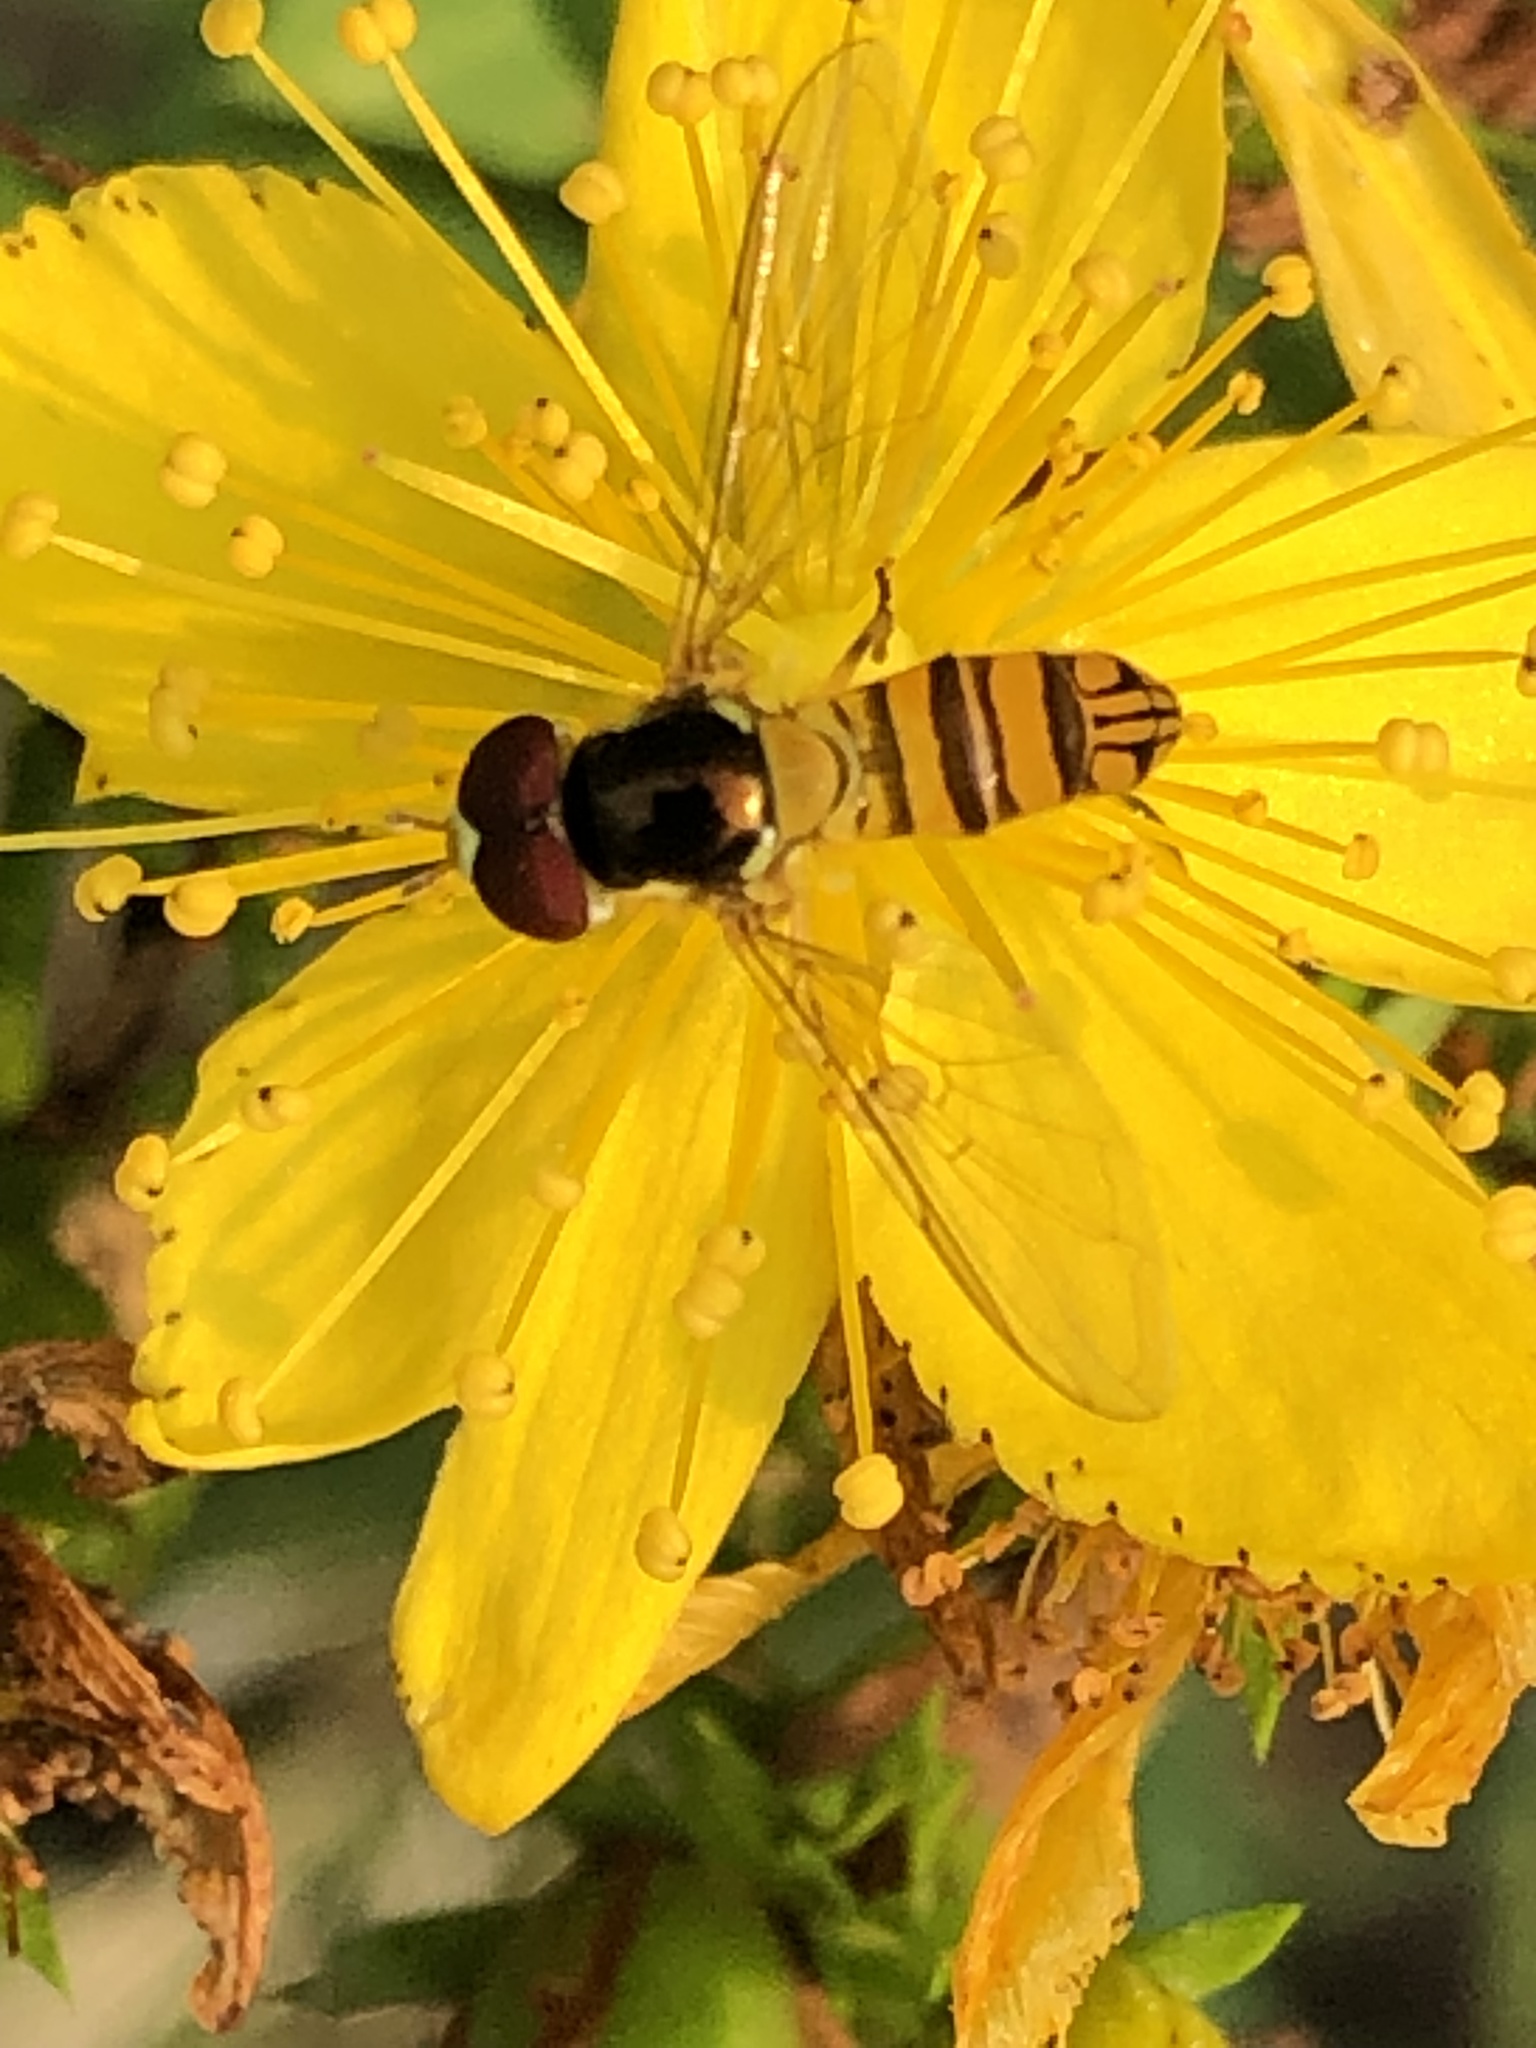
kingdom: Animalia
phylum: Arthropoda
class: Insecta
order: Diptera
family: Syrphidae
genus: Allograpta
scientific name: Allograpta obliqua
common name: Common oblique syrphid
